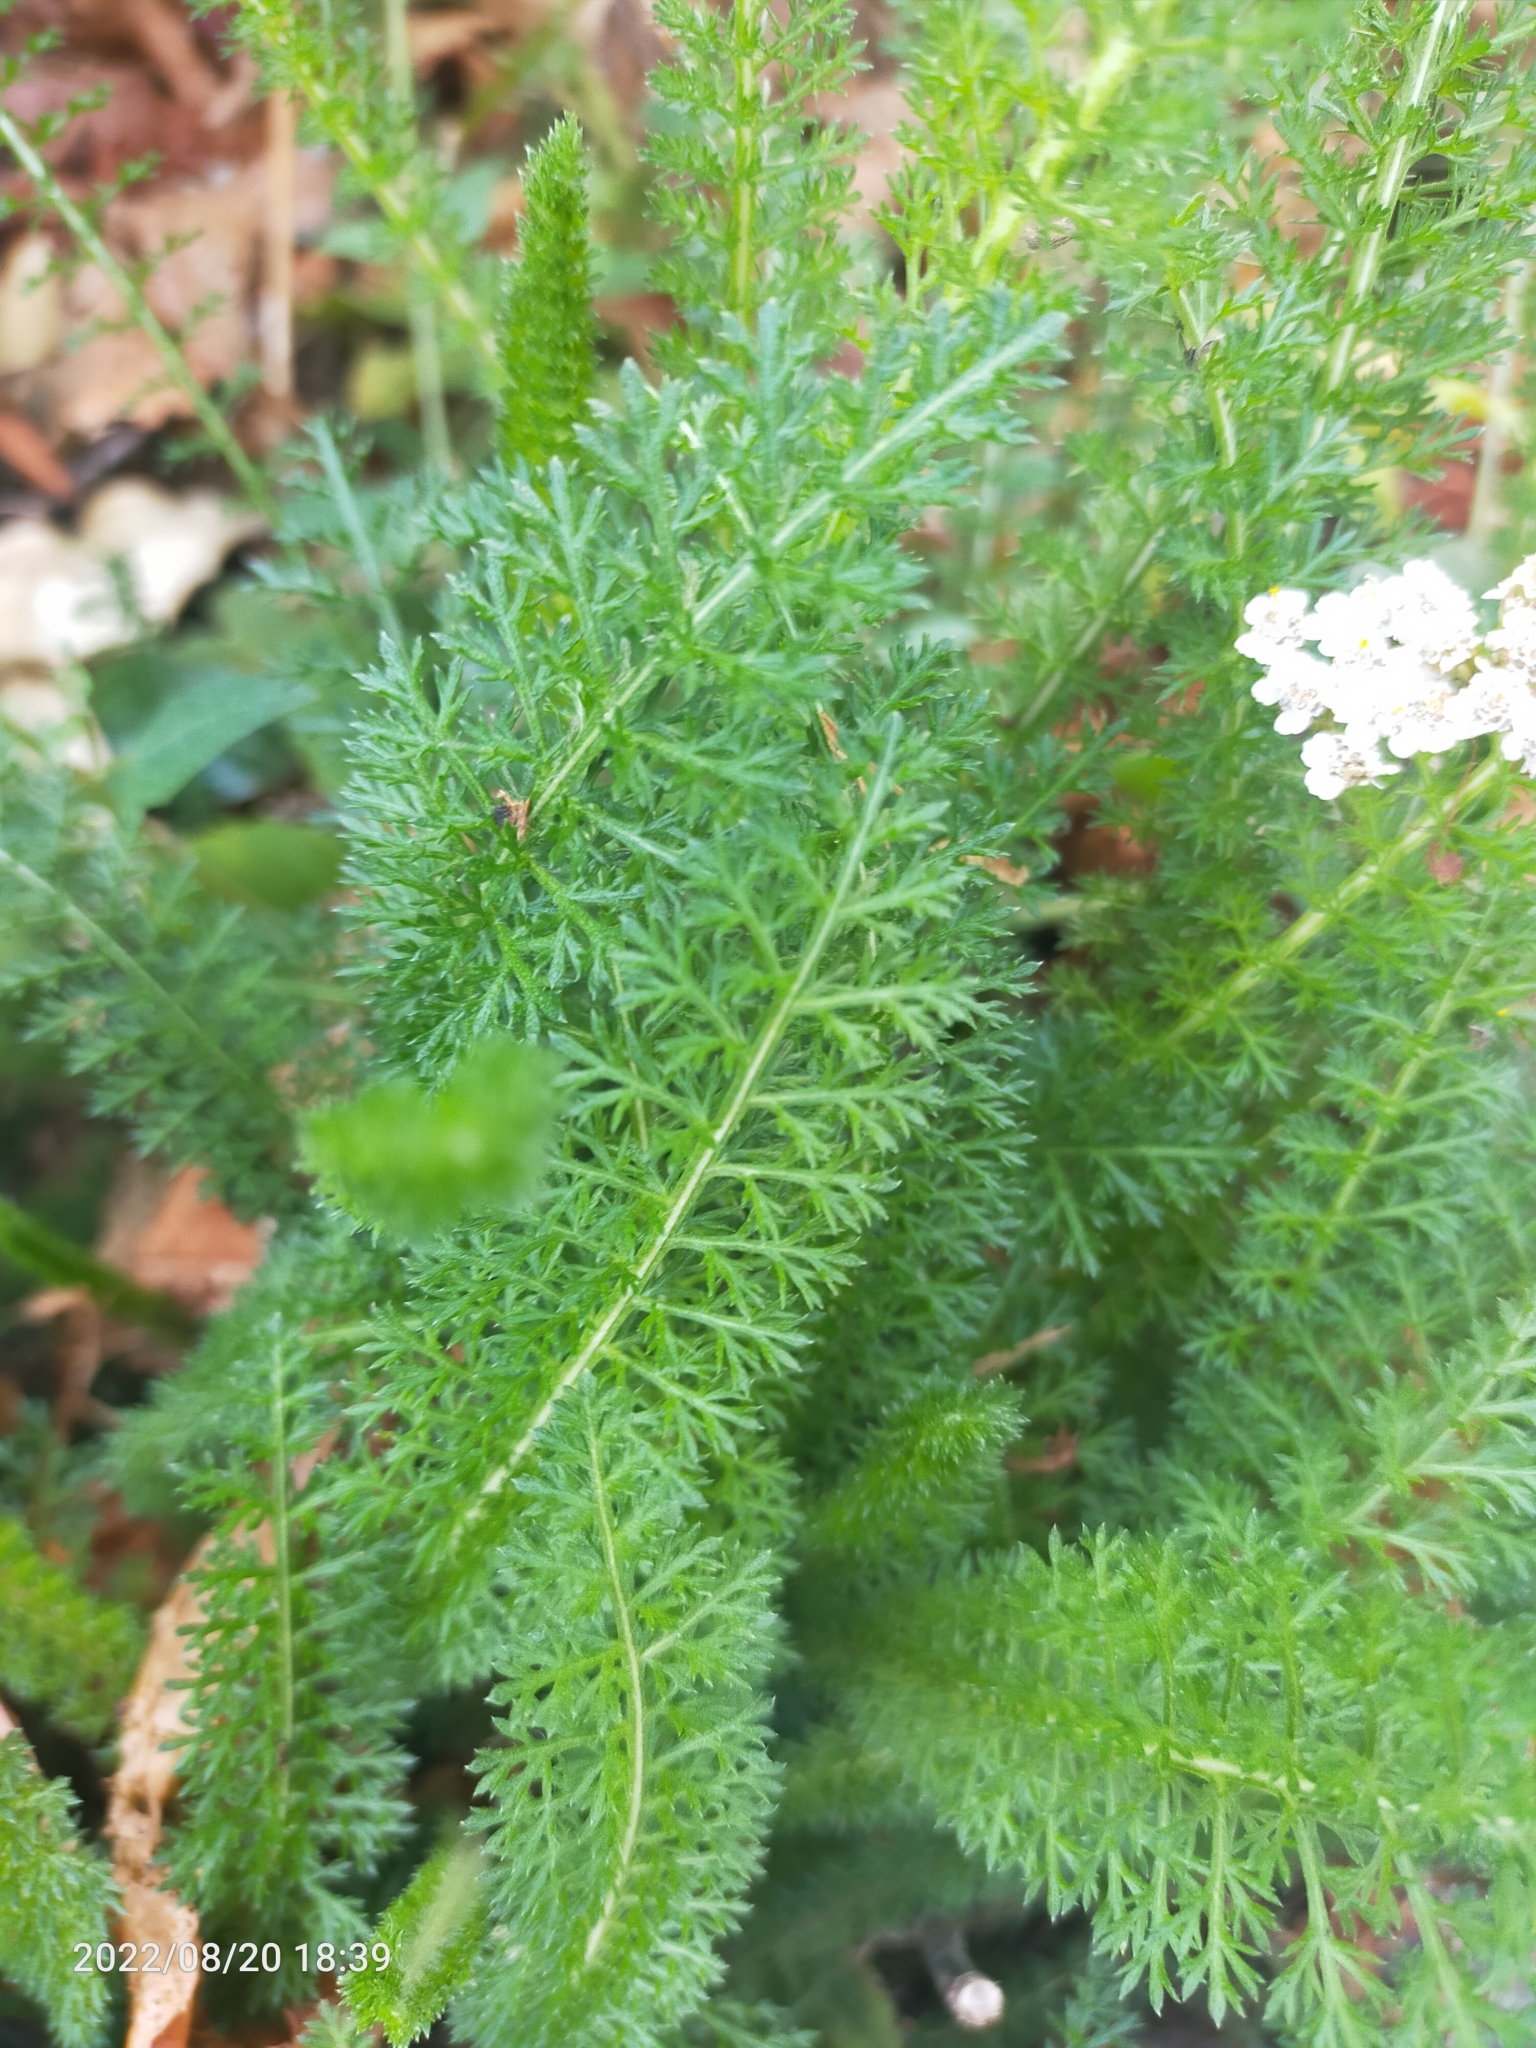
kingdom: Plantae
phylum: Tracheophyta
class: Magnoliopsida
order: Asterales
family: Asteraceae
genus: Achillea
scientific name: Achillea millefolium
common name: Yarrow
